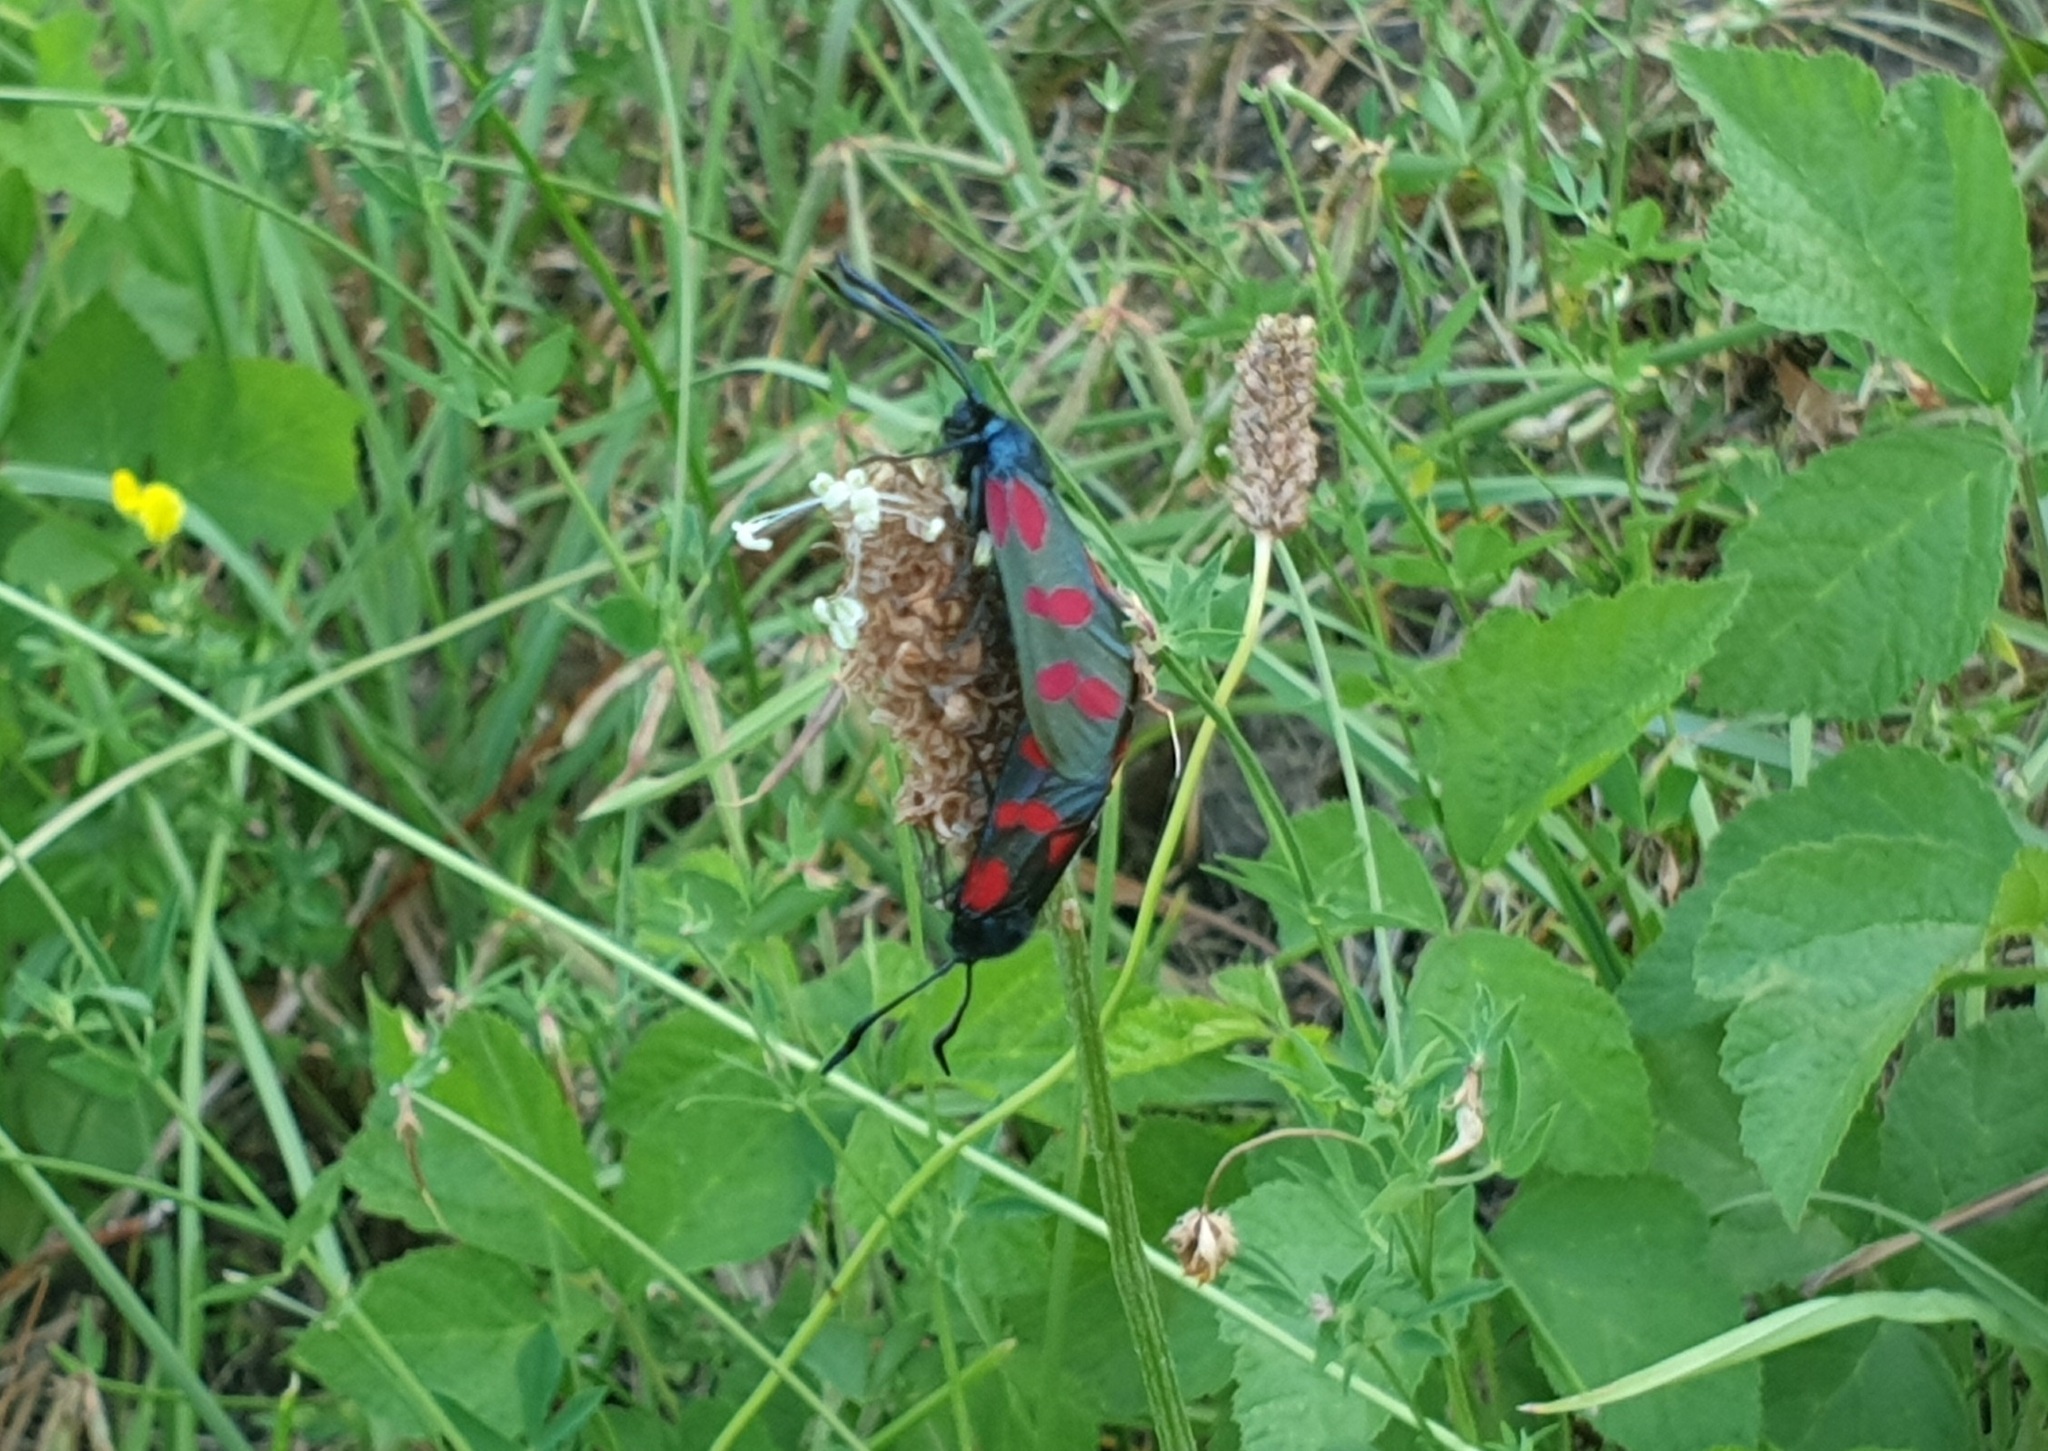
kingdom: Animalia
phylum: Arthropoda
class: Insecta
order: Lepidoptera
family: Zygaenidae
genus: Zygaena
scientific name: Zygaena filipendulae
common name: Six-spot burnet
